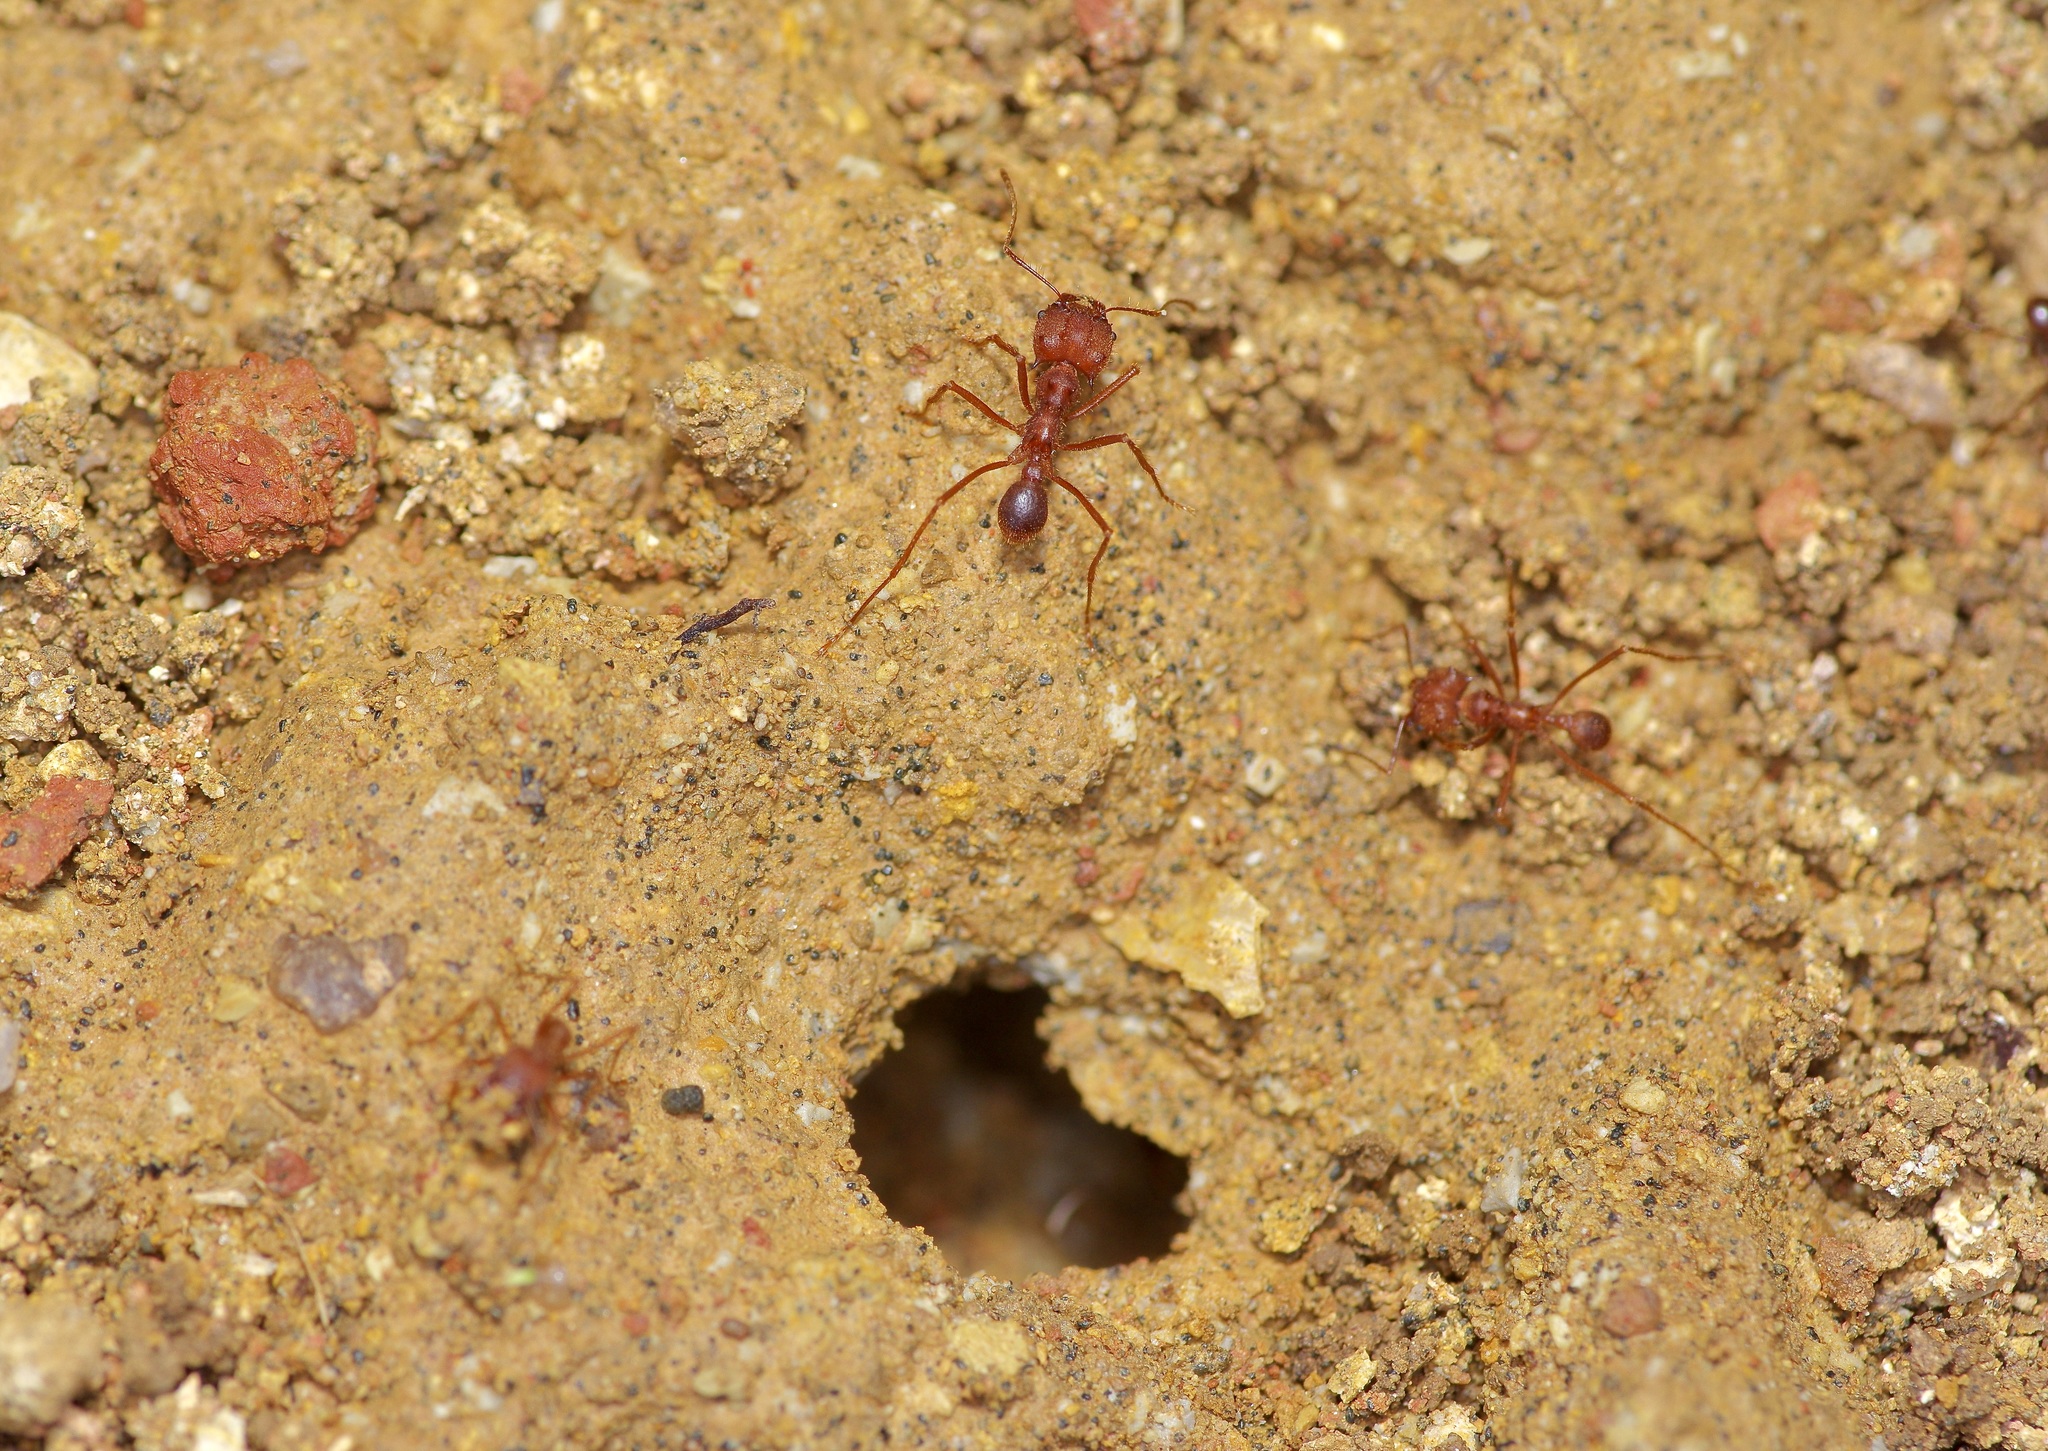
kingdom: Animalia
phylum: Arthropoda
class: Insecta
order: Hymenoptera
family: Formicidae
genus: Atta
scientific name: Atta texana
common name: Texas leafcutting ant
